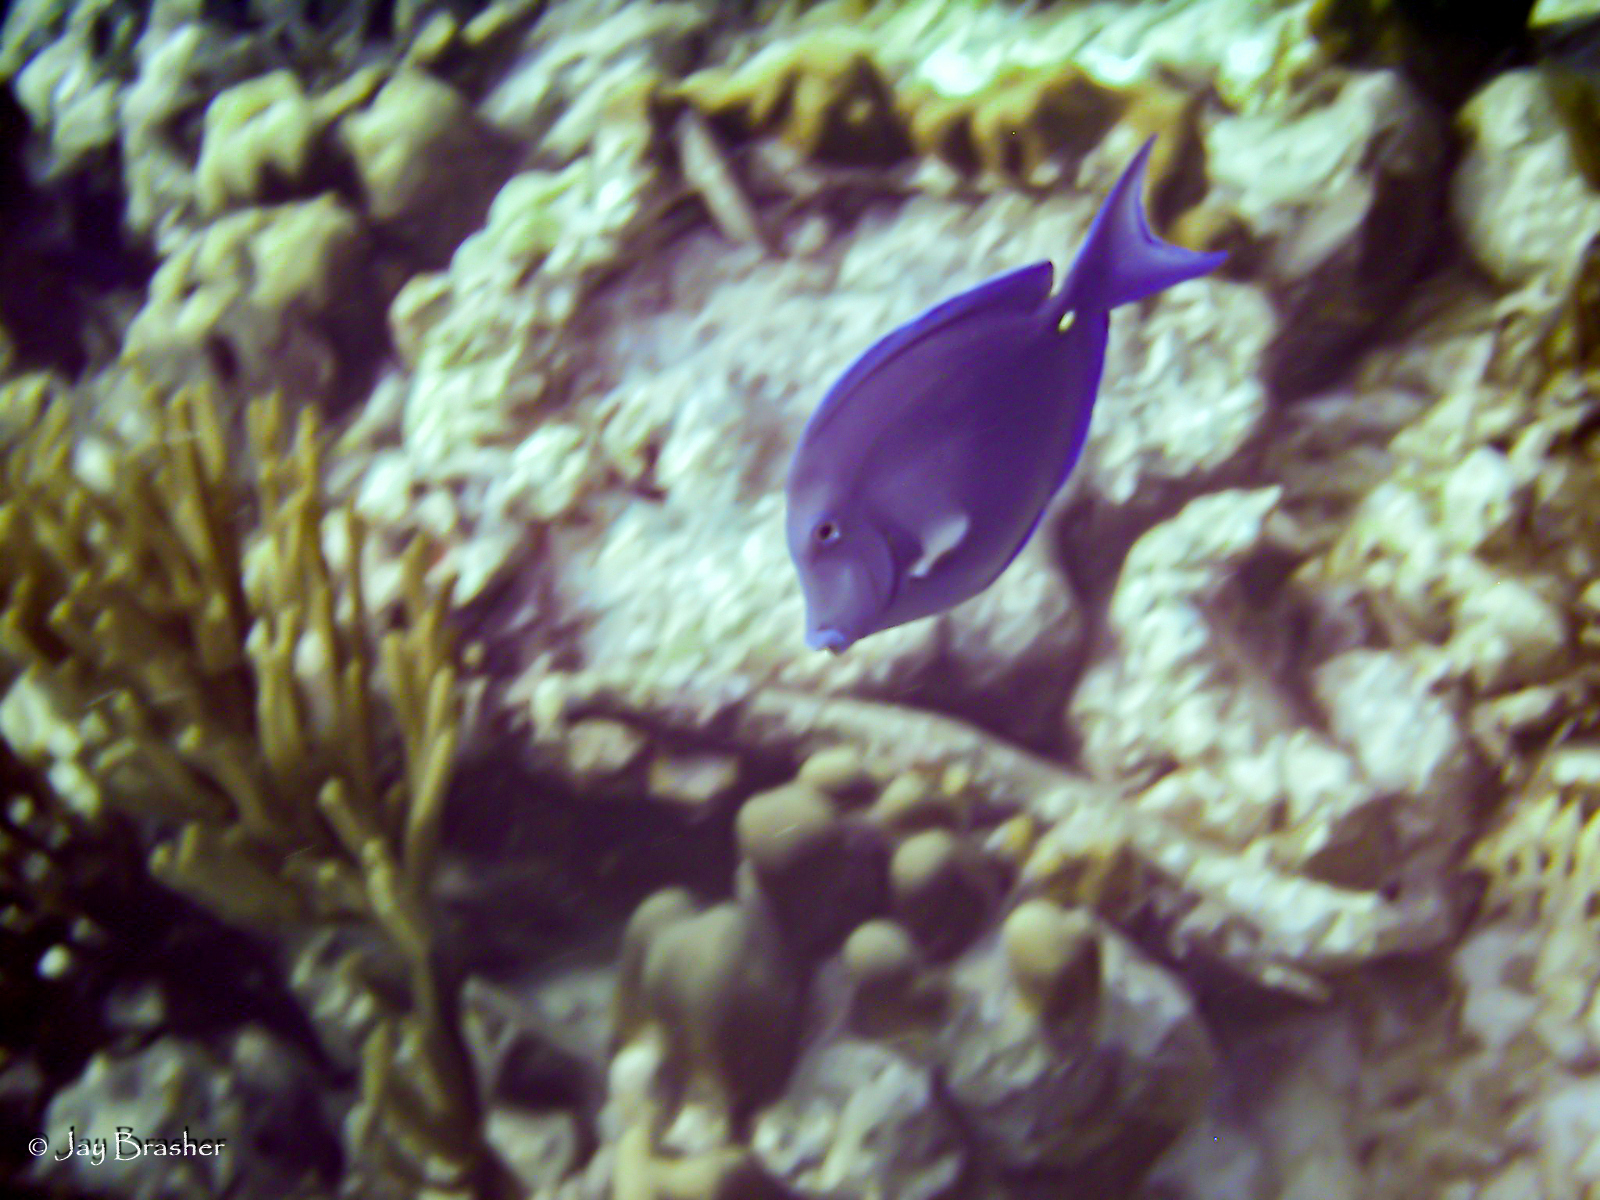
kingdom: Animalia
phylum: Chordata
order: Perciformes
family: Acanthuridae
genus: Acanthurus
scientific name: Acanthurus coeruleus
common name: Blue tang
